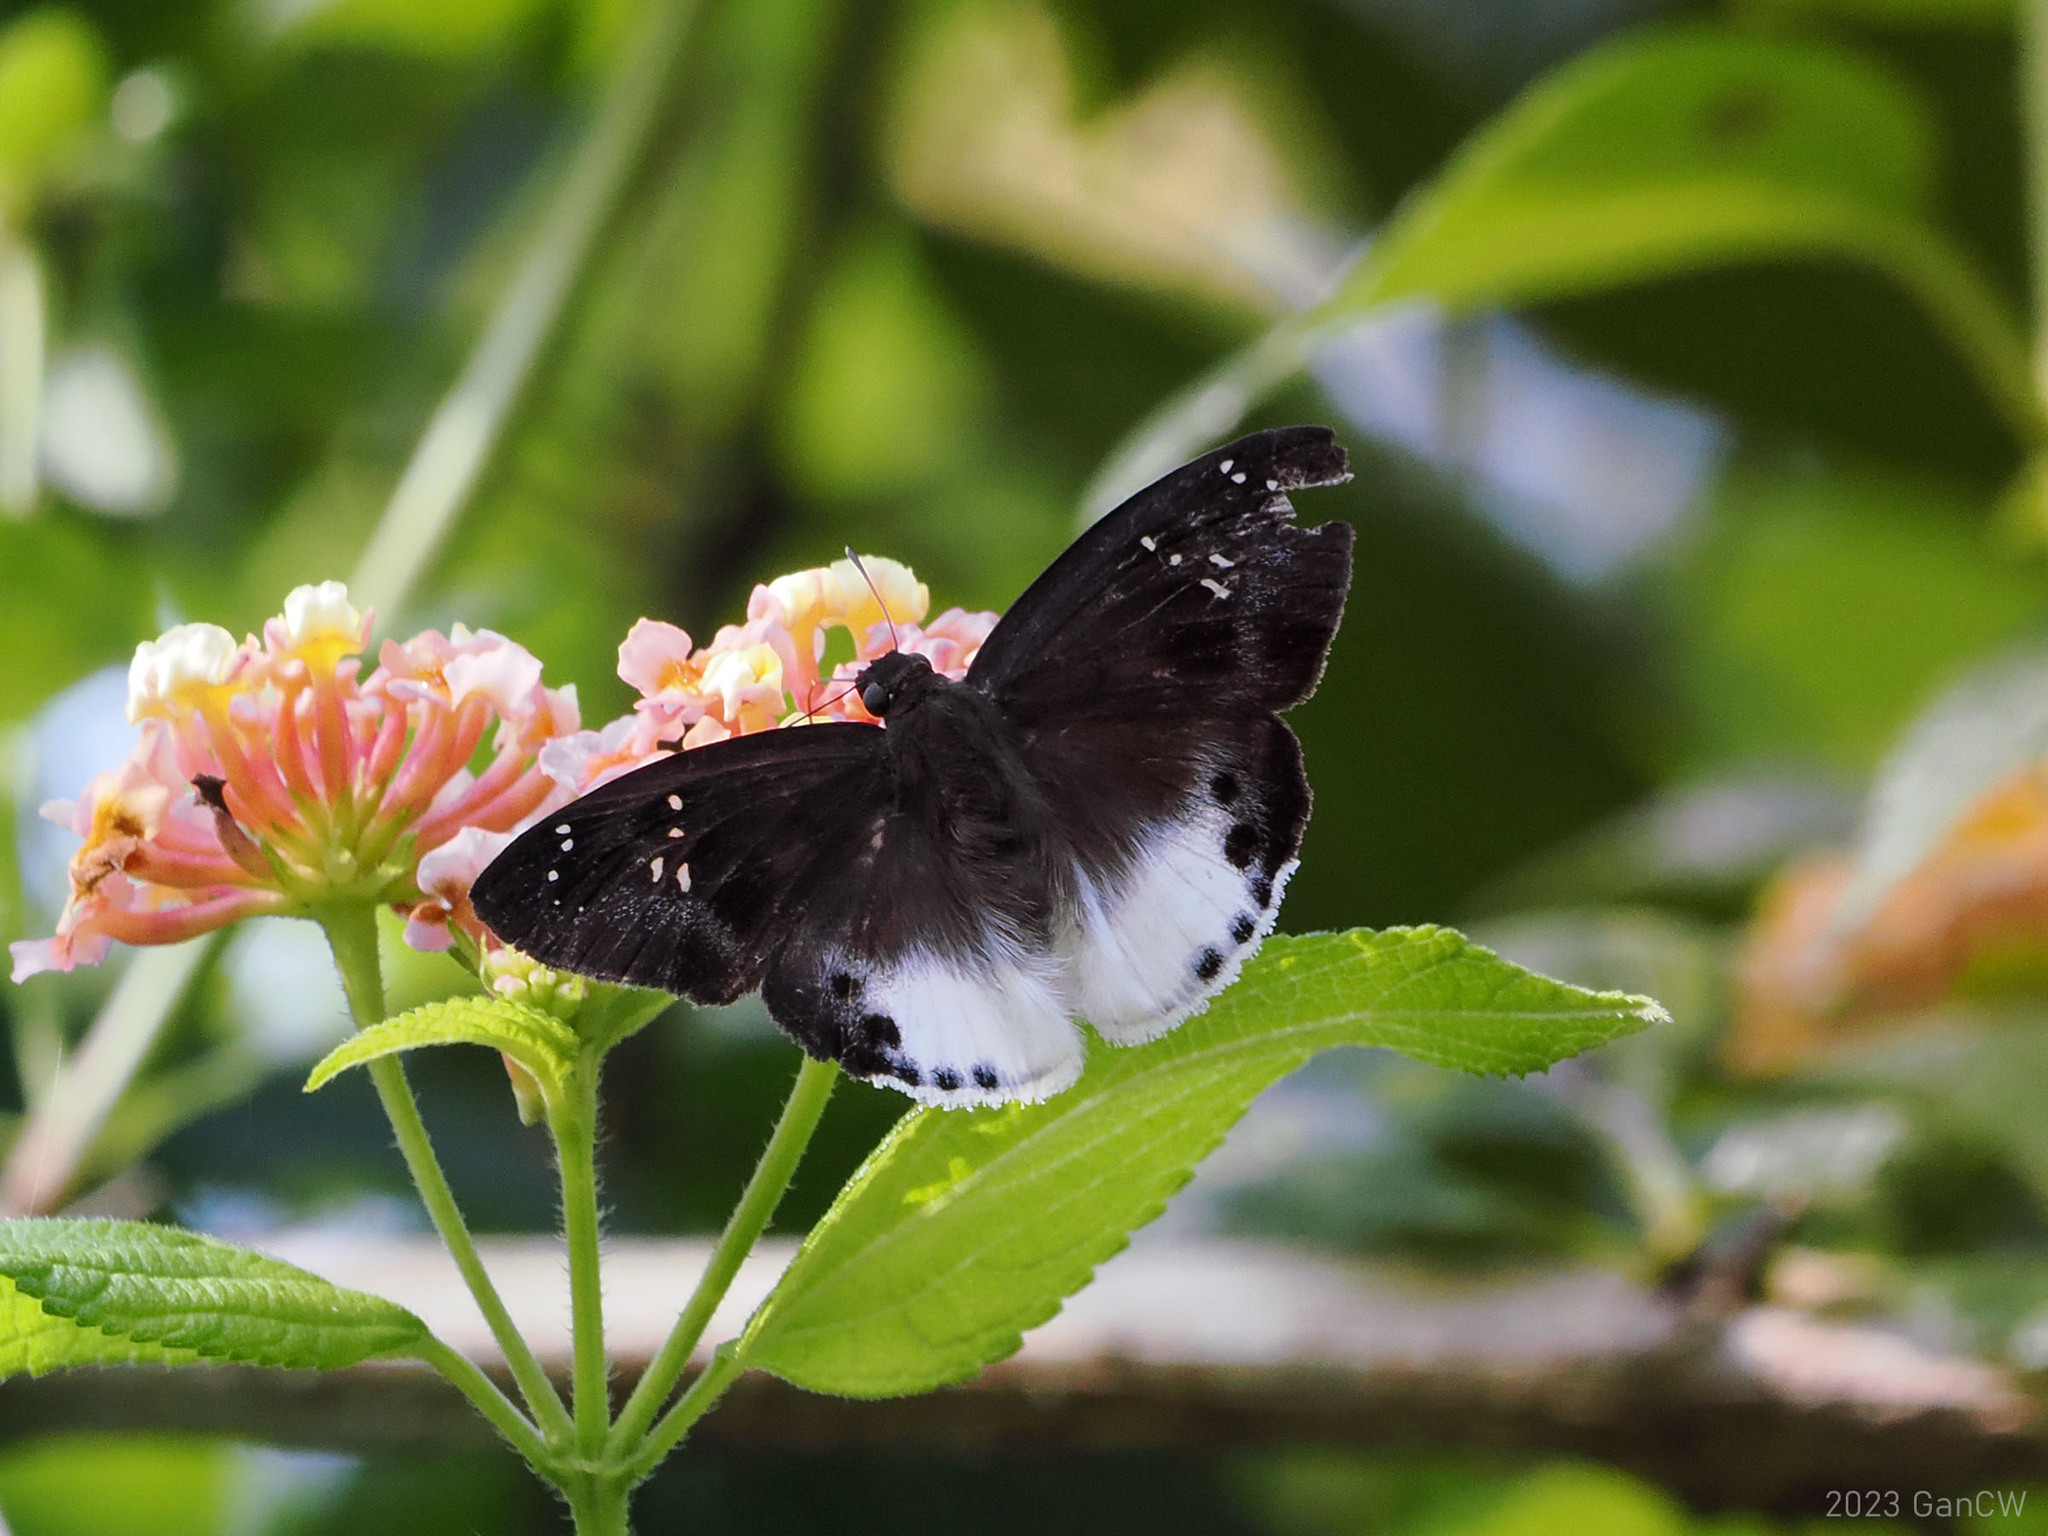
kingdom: Animalia
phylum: Arthropoda
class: Insecta
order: Lepidoptera
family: Hesperiidae
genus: Tagiades
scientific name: Tagiades japetus
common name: Pied flat
